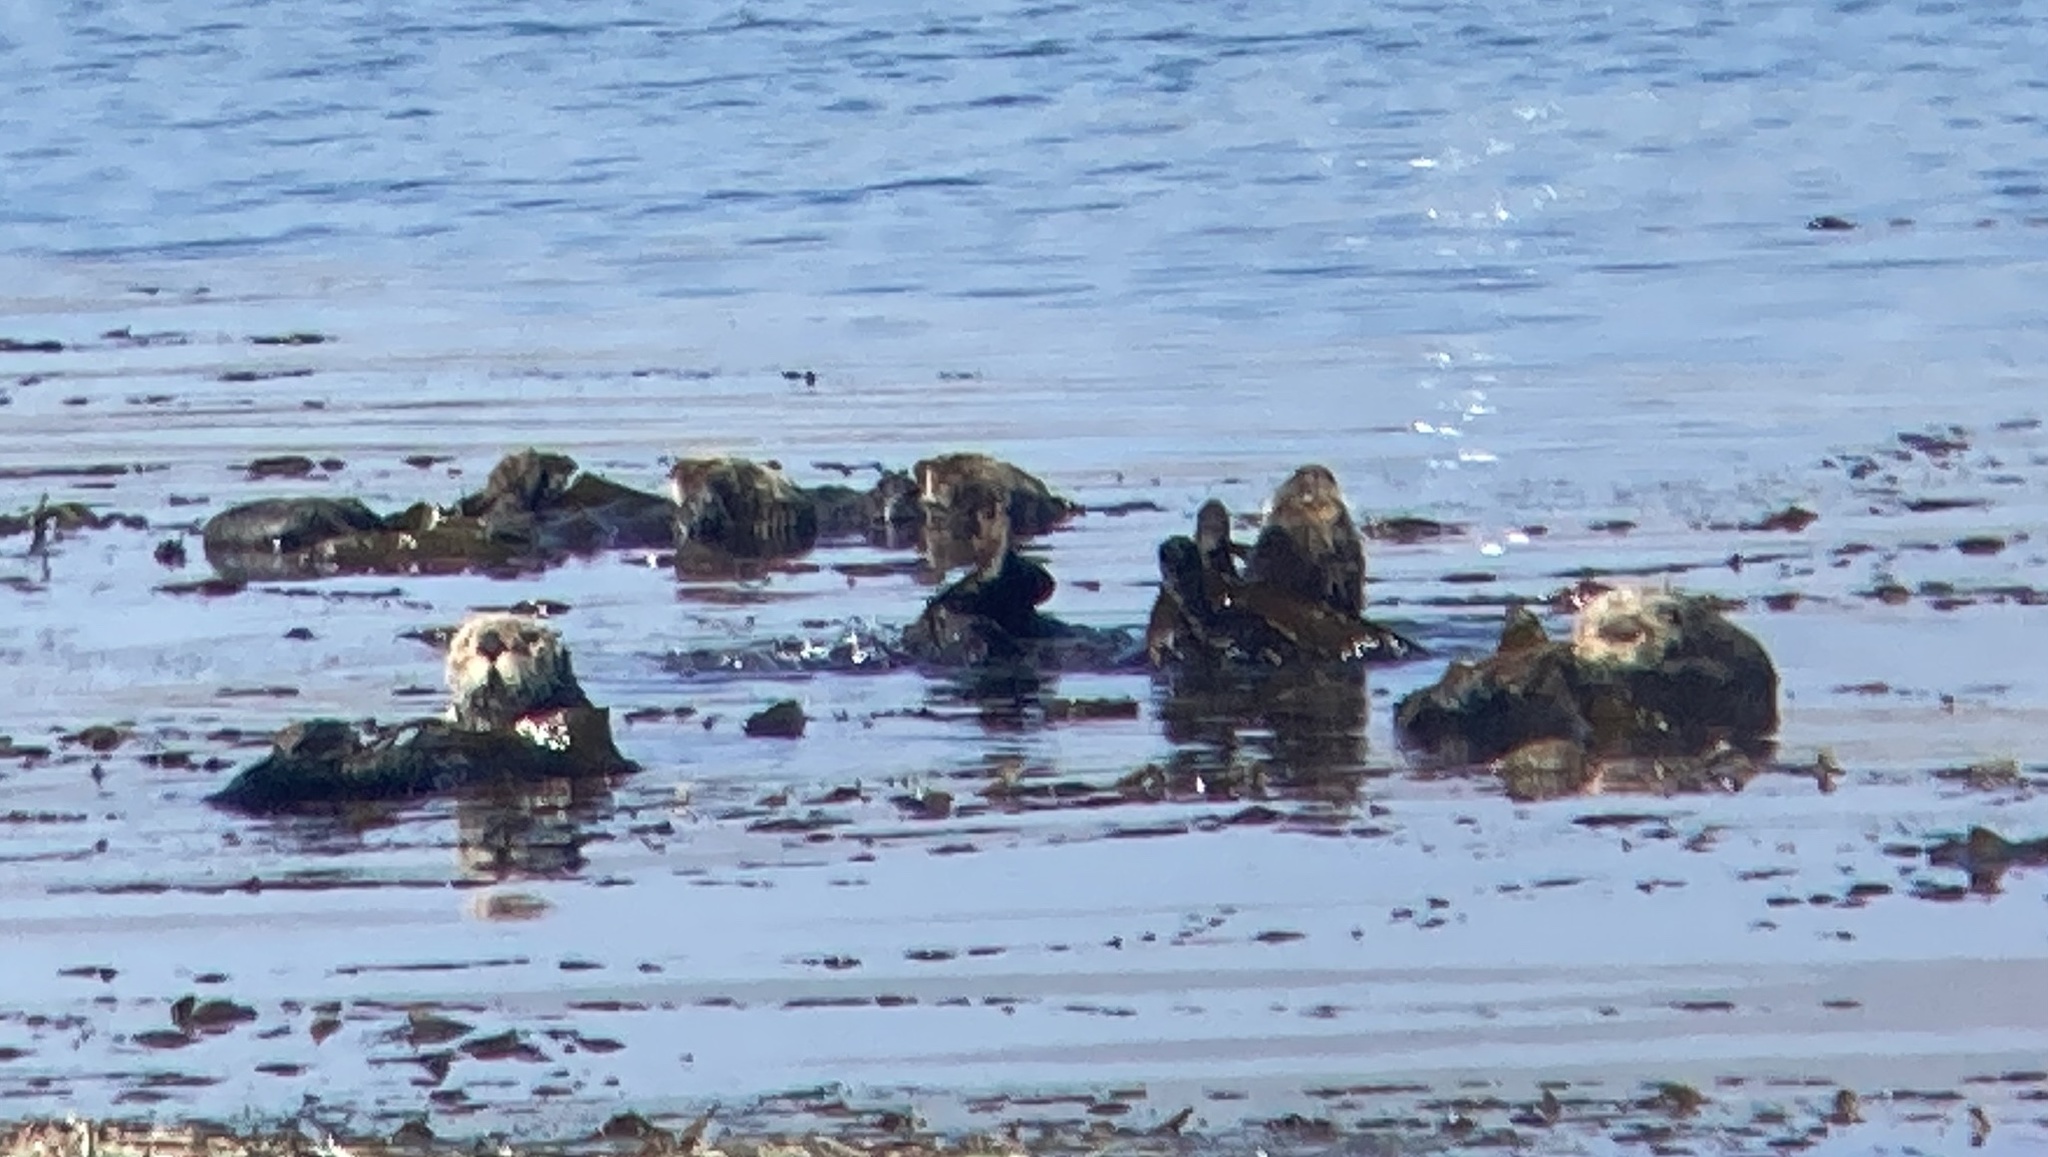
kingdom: Animalia
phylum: Chordata
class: Mammalia
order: Carnivora
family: Mustelidae
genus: Enhydra
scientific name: Enhydra lutris
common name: Sea otter
